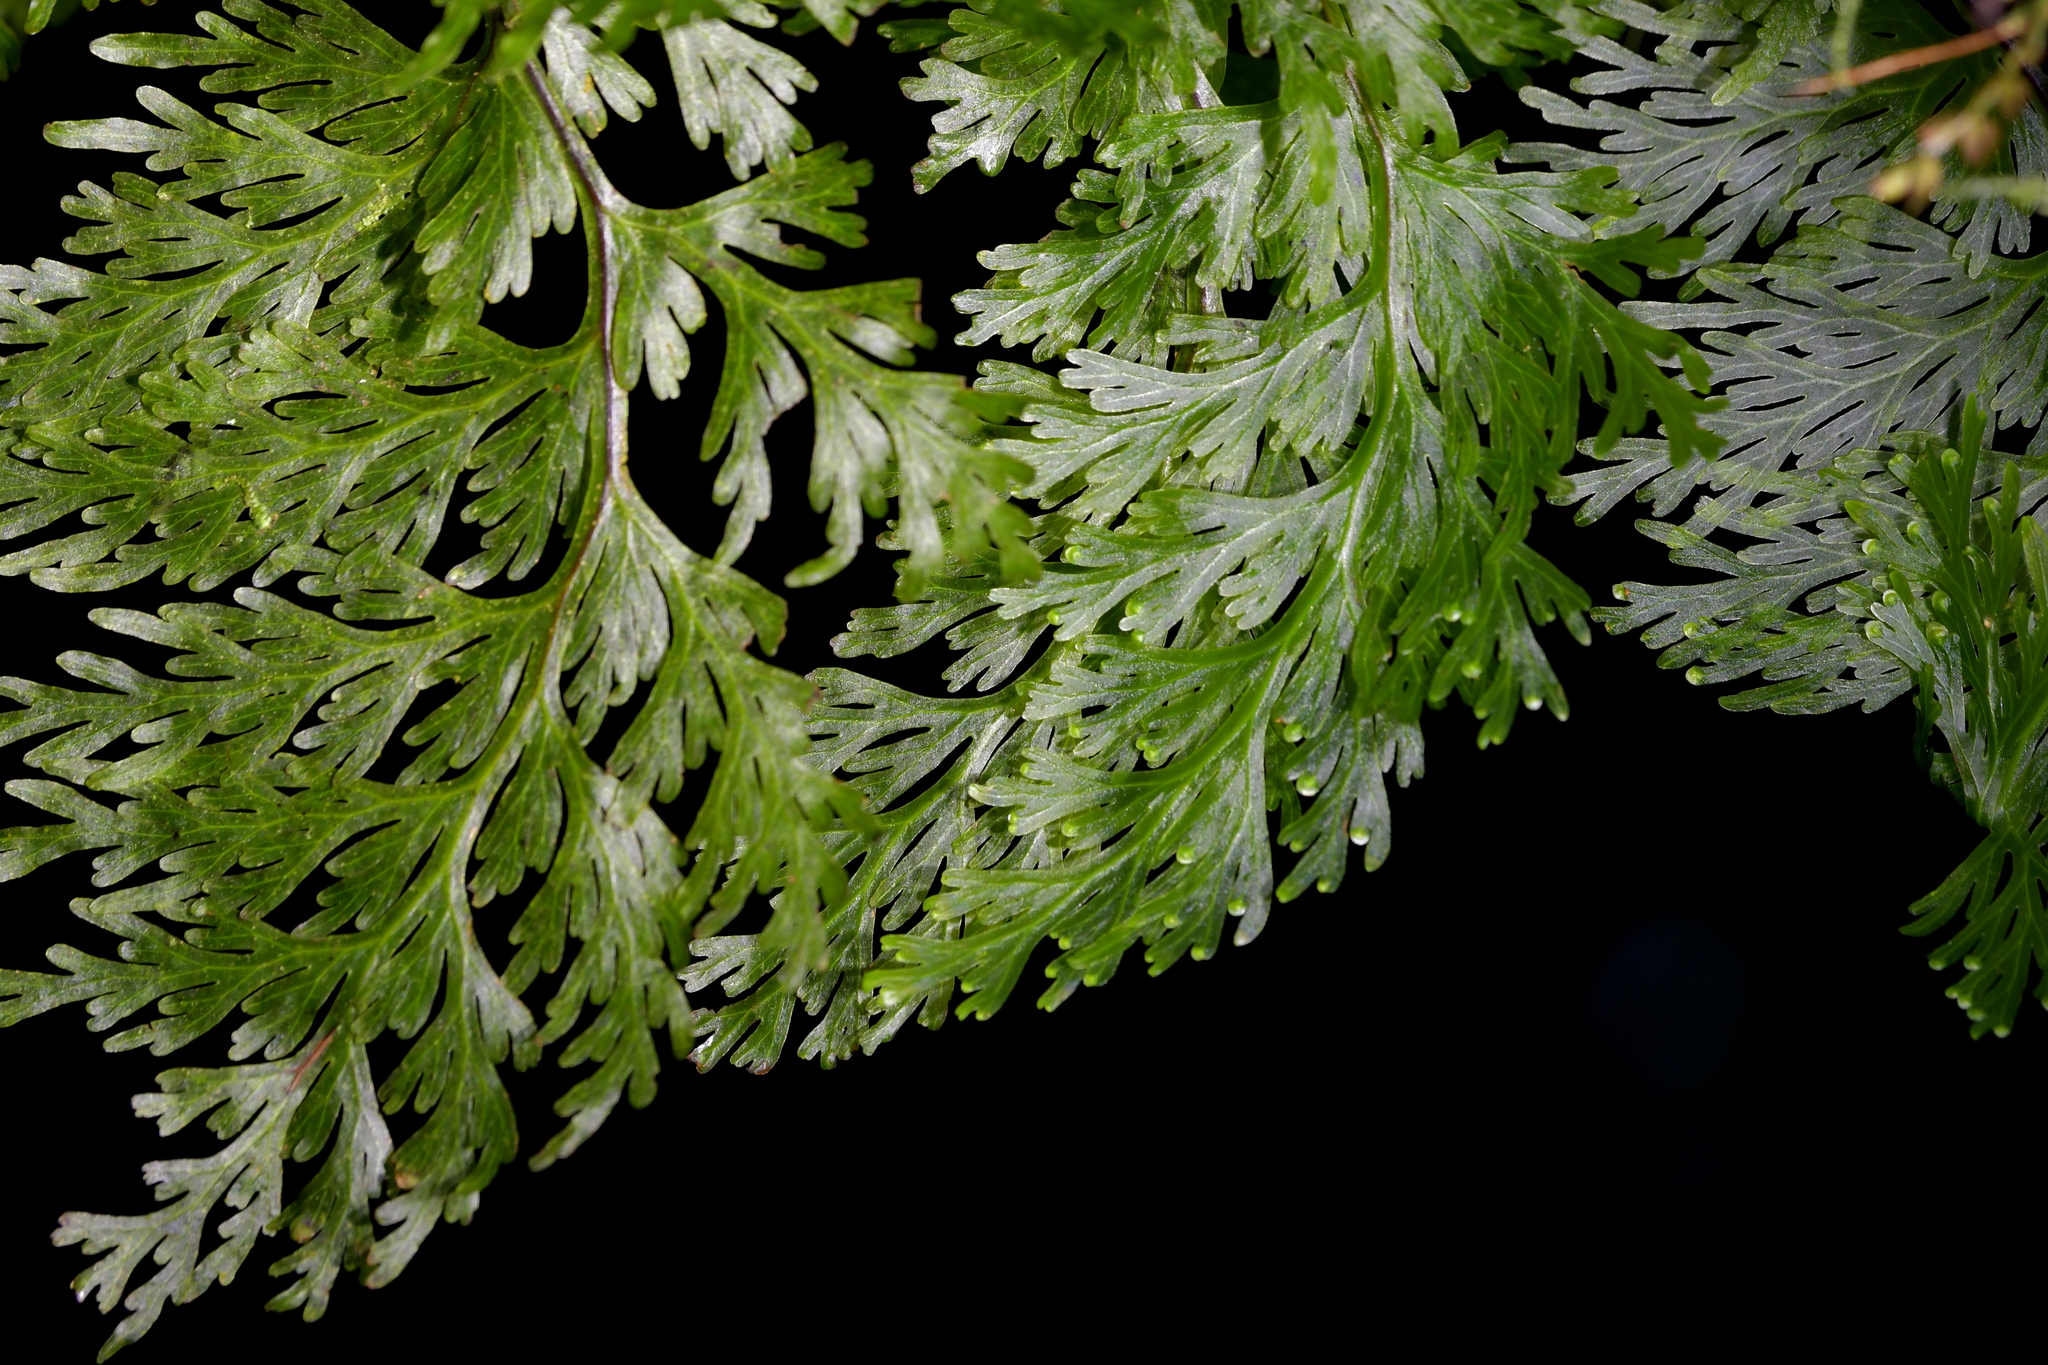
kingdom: Plantae
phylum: Tracheophyta
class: Polypodiopsida
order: Hymenophyllales
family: Hymenophyllaceae
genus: Hymenophyllum
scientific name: Hymenophyllum dilatatum
